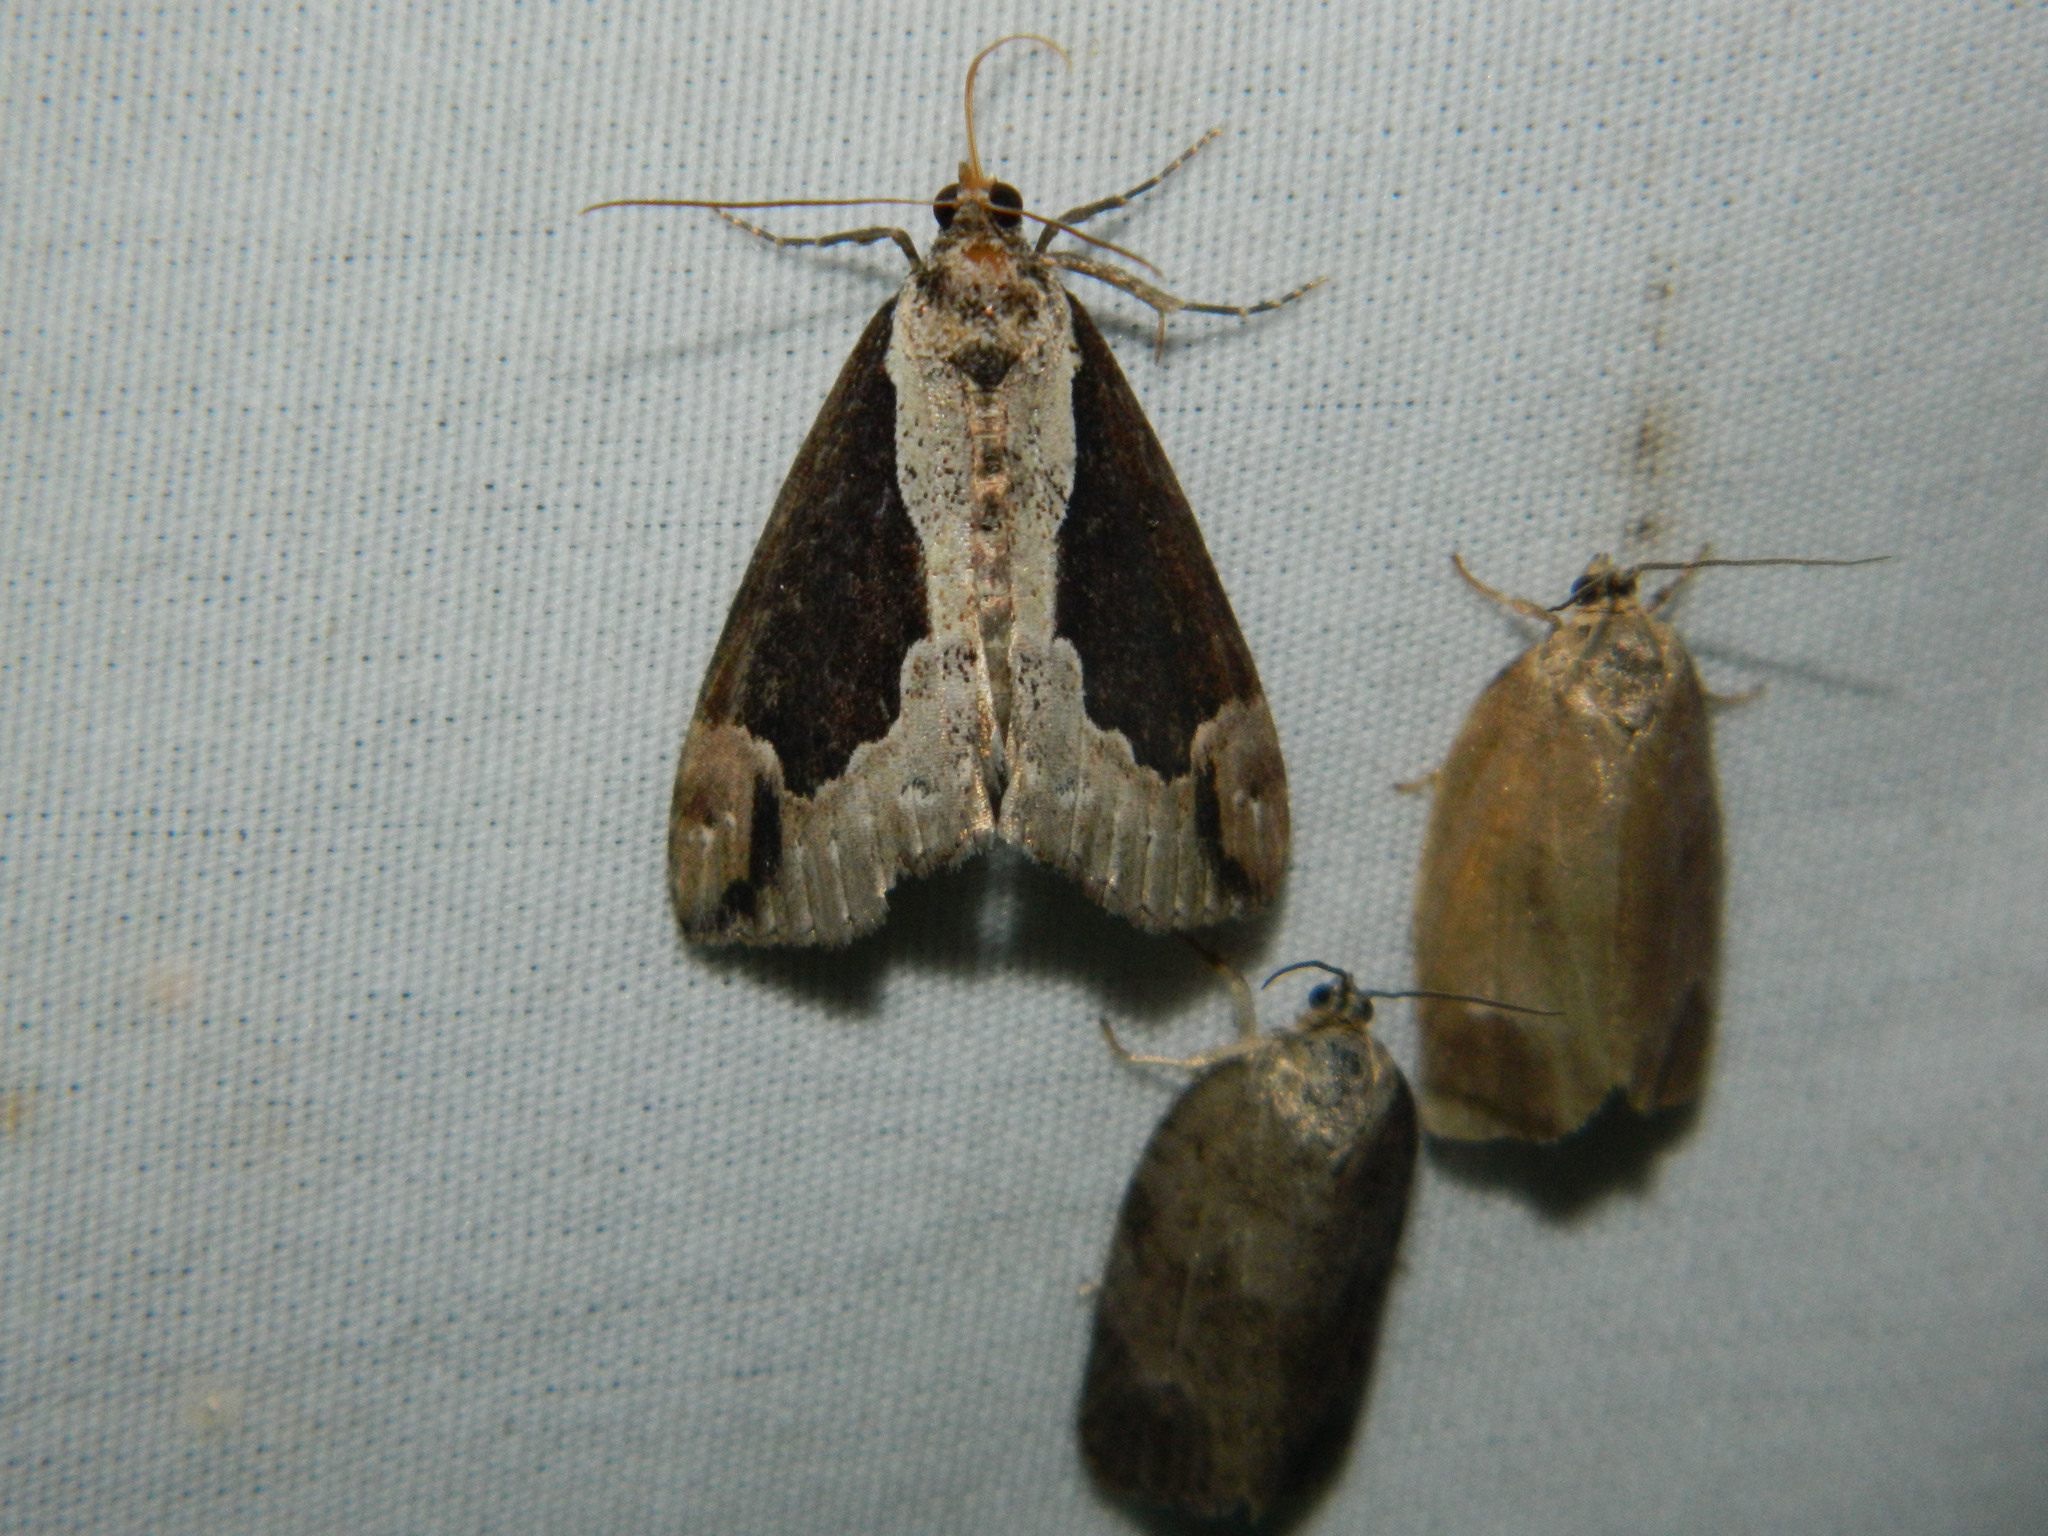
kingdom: Animalia
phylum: Arthropoda
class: Insecta
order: Lepidoptera
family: Erebidae
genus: Hypena
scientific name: Hypena baltimoralis
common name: Baltimore snout
